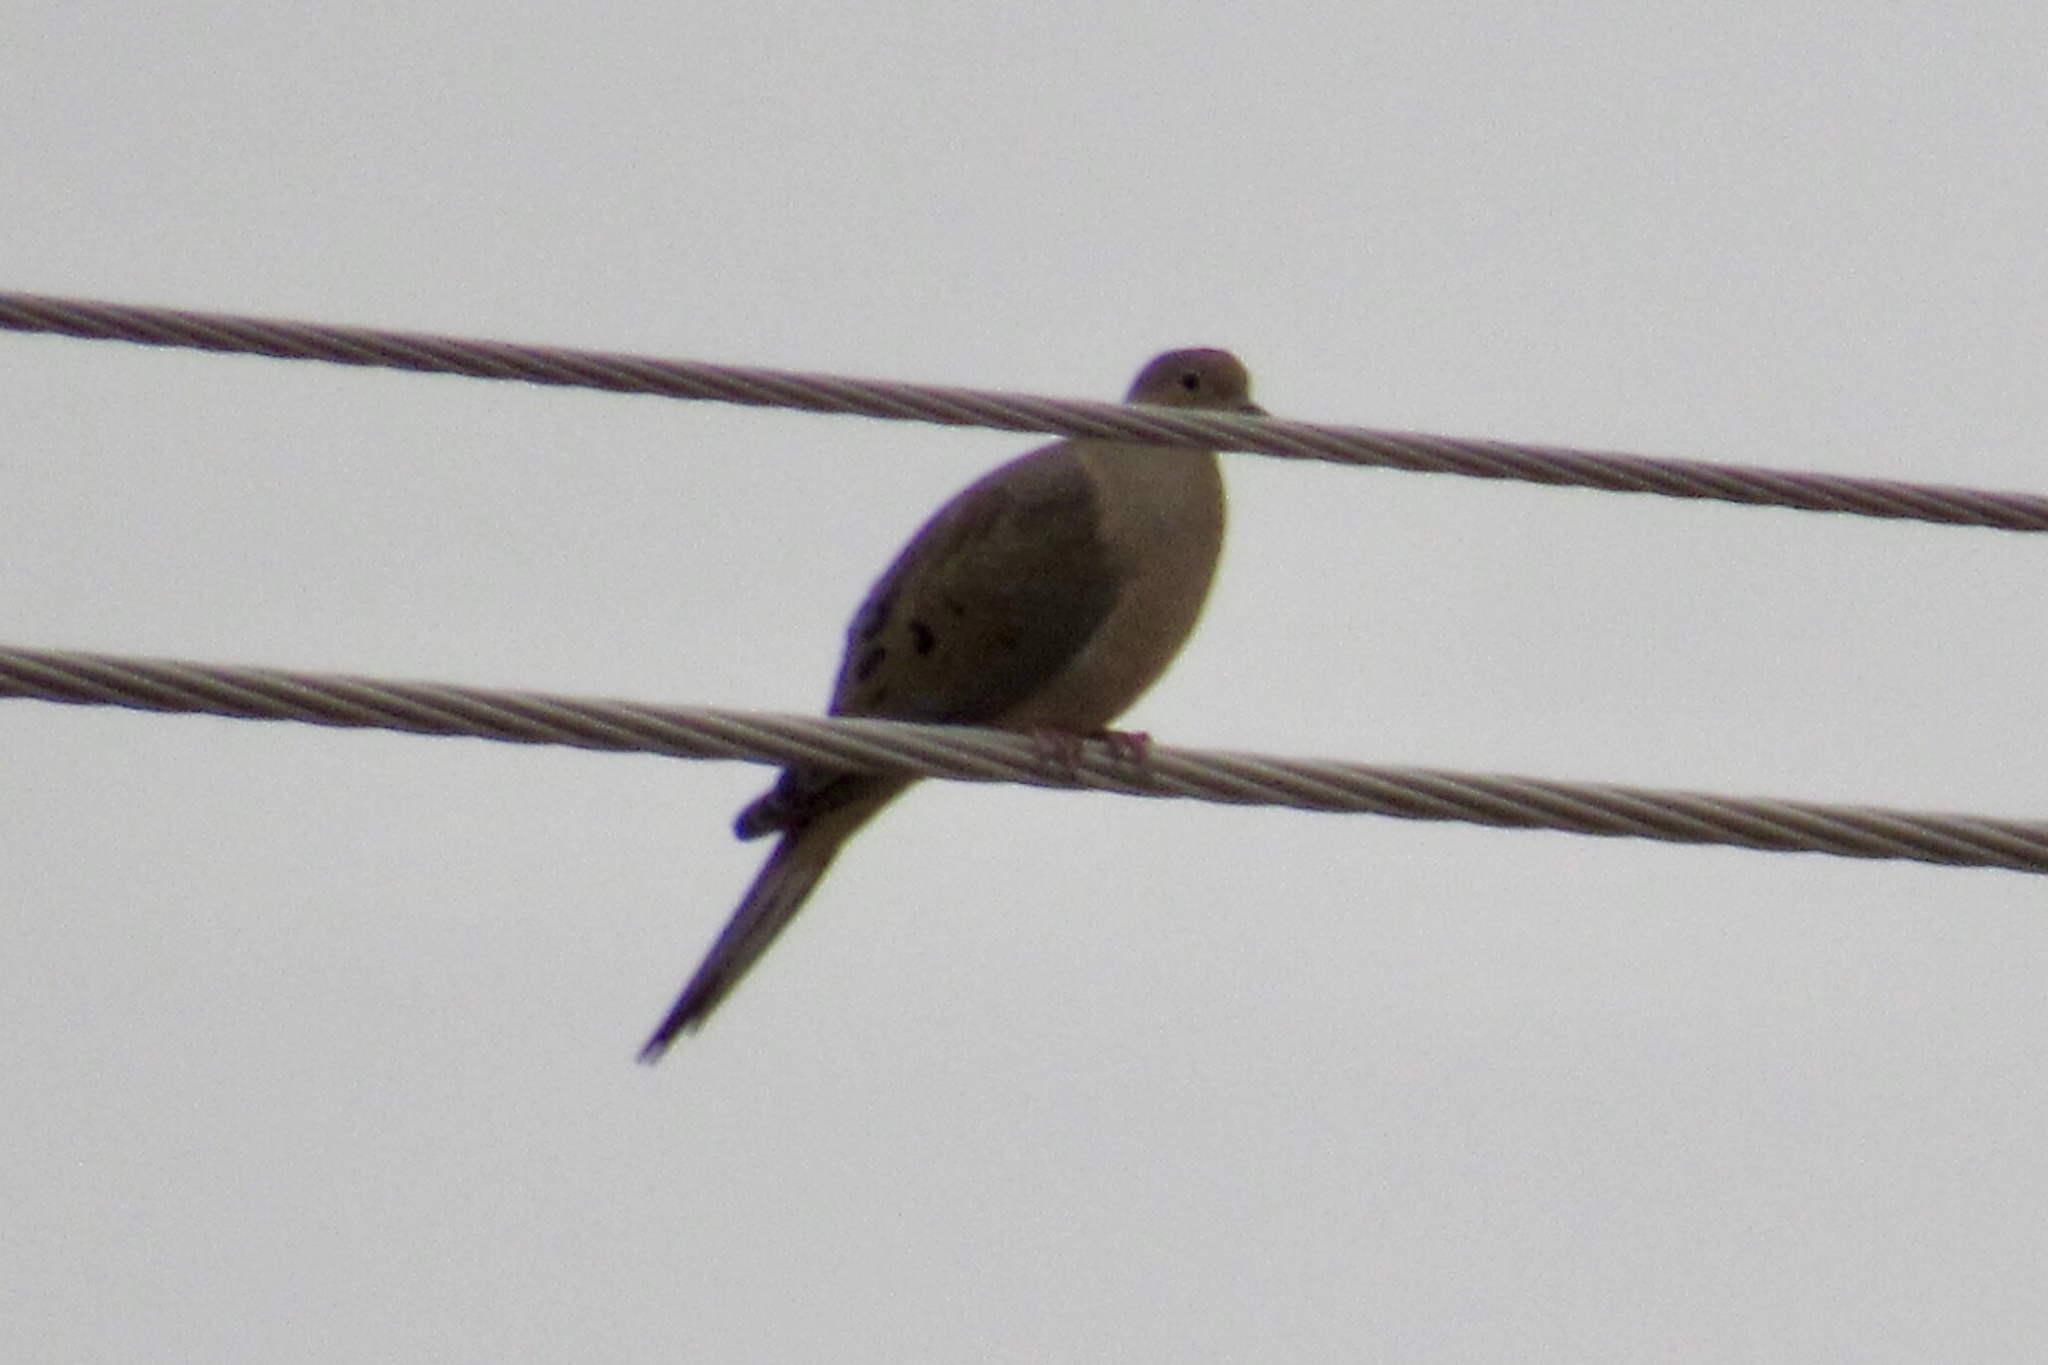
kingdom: Animalia
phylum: Chordata
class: Aves
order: Columbiformes
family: Columbidae
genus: Zenaida
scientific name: Zenaida macroura
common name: Mourning dove
